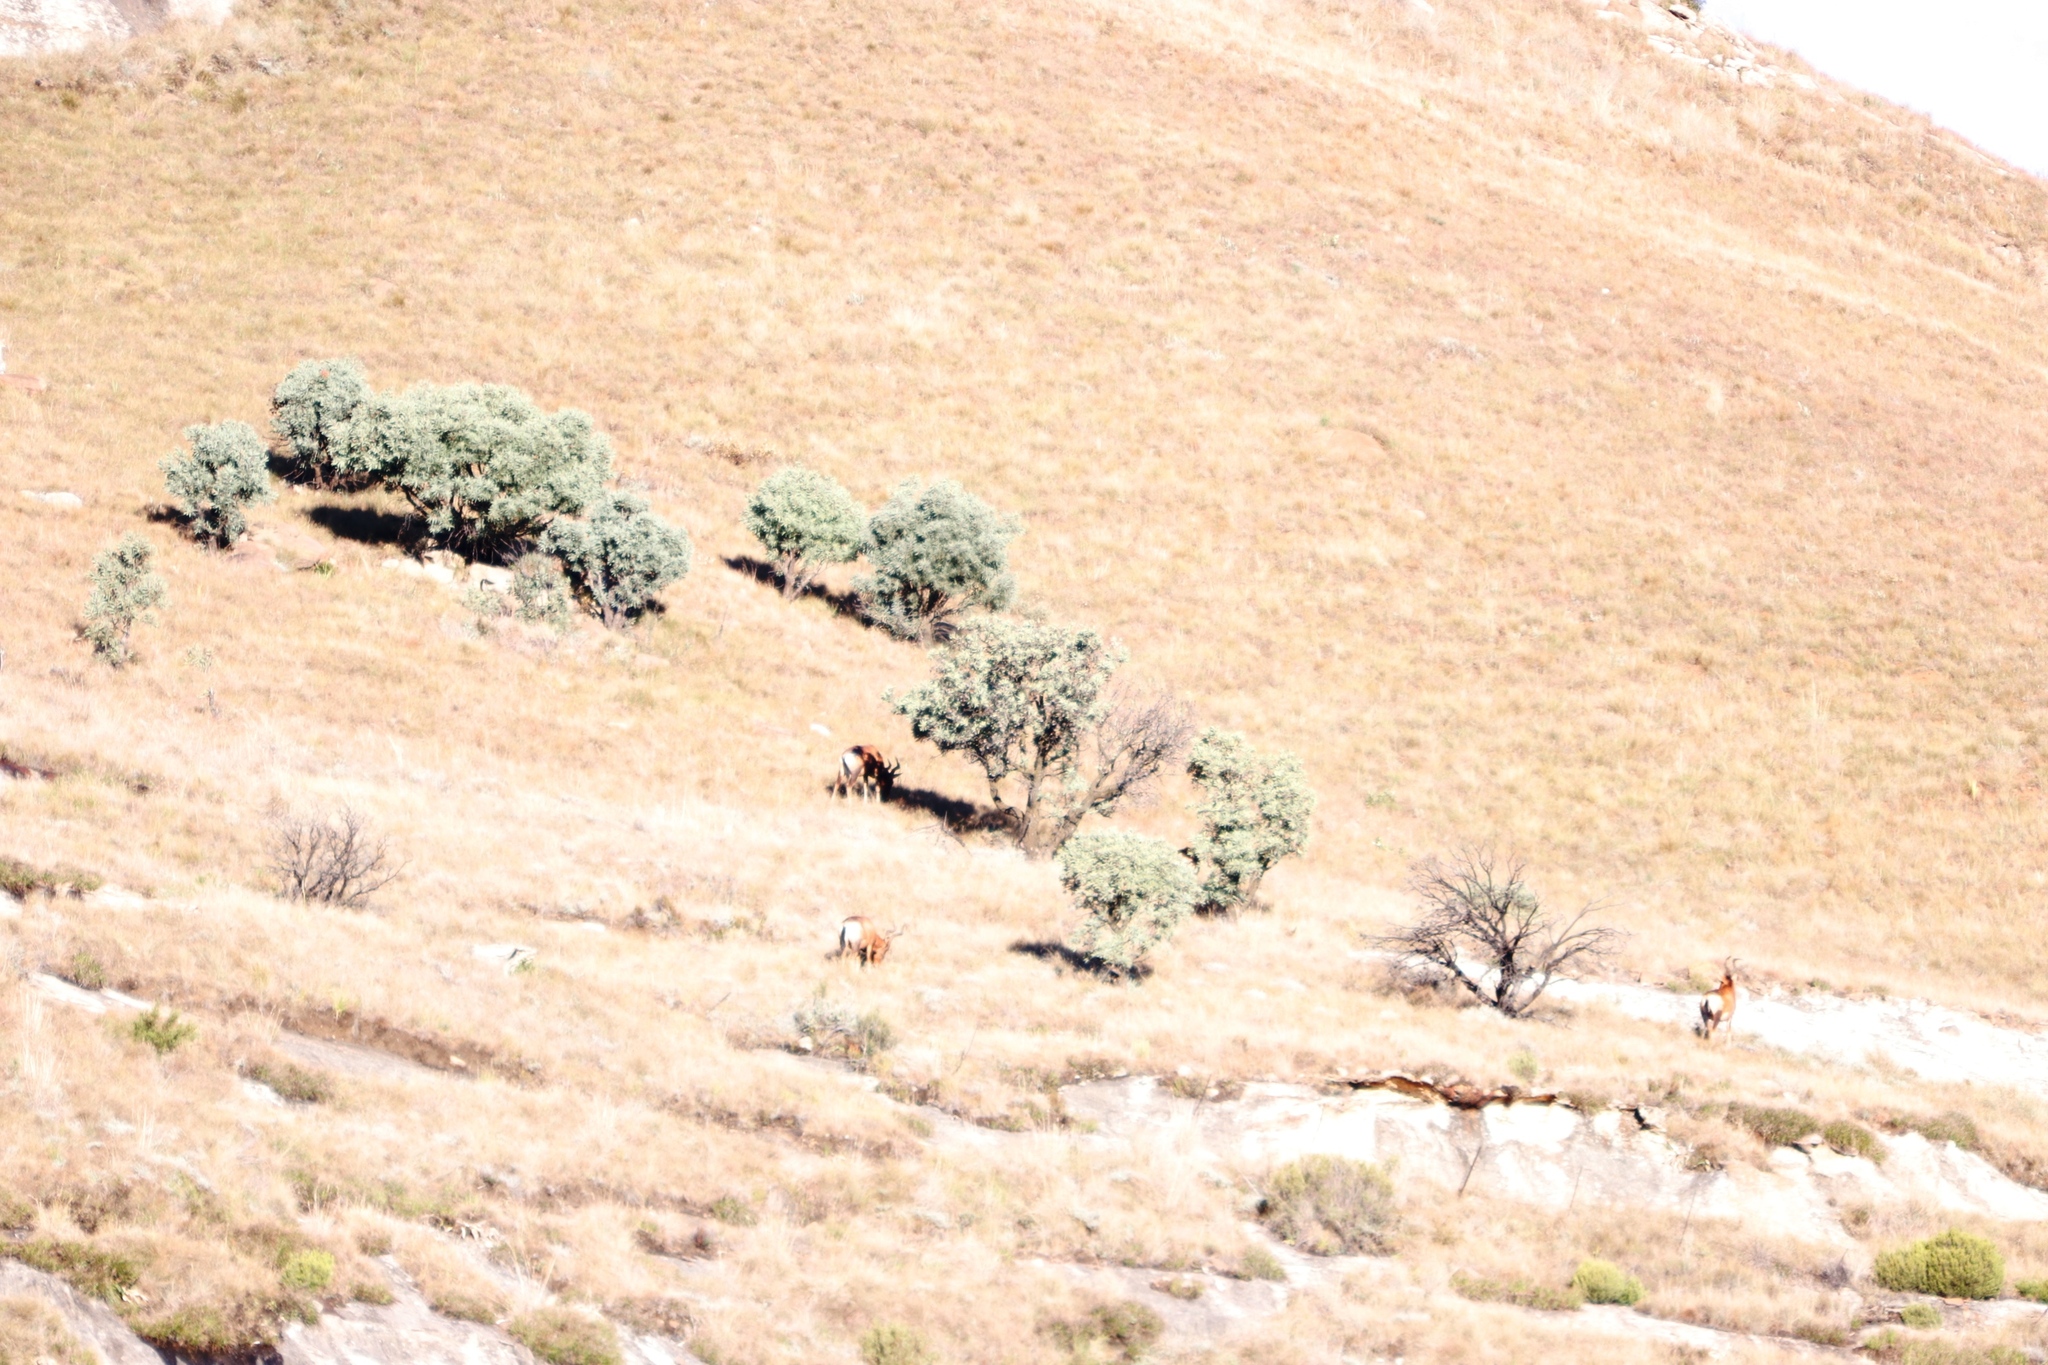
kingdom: Animalia
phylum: Chordata
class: Mammalia
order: Artiodactyla
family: Bovidae
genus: Alcelaphus
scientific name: Alcelaphus caama
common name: Red hartebeest
